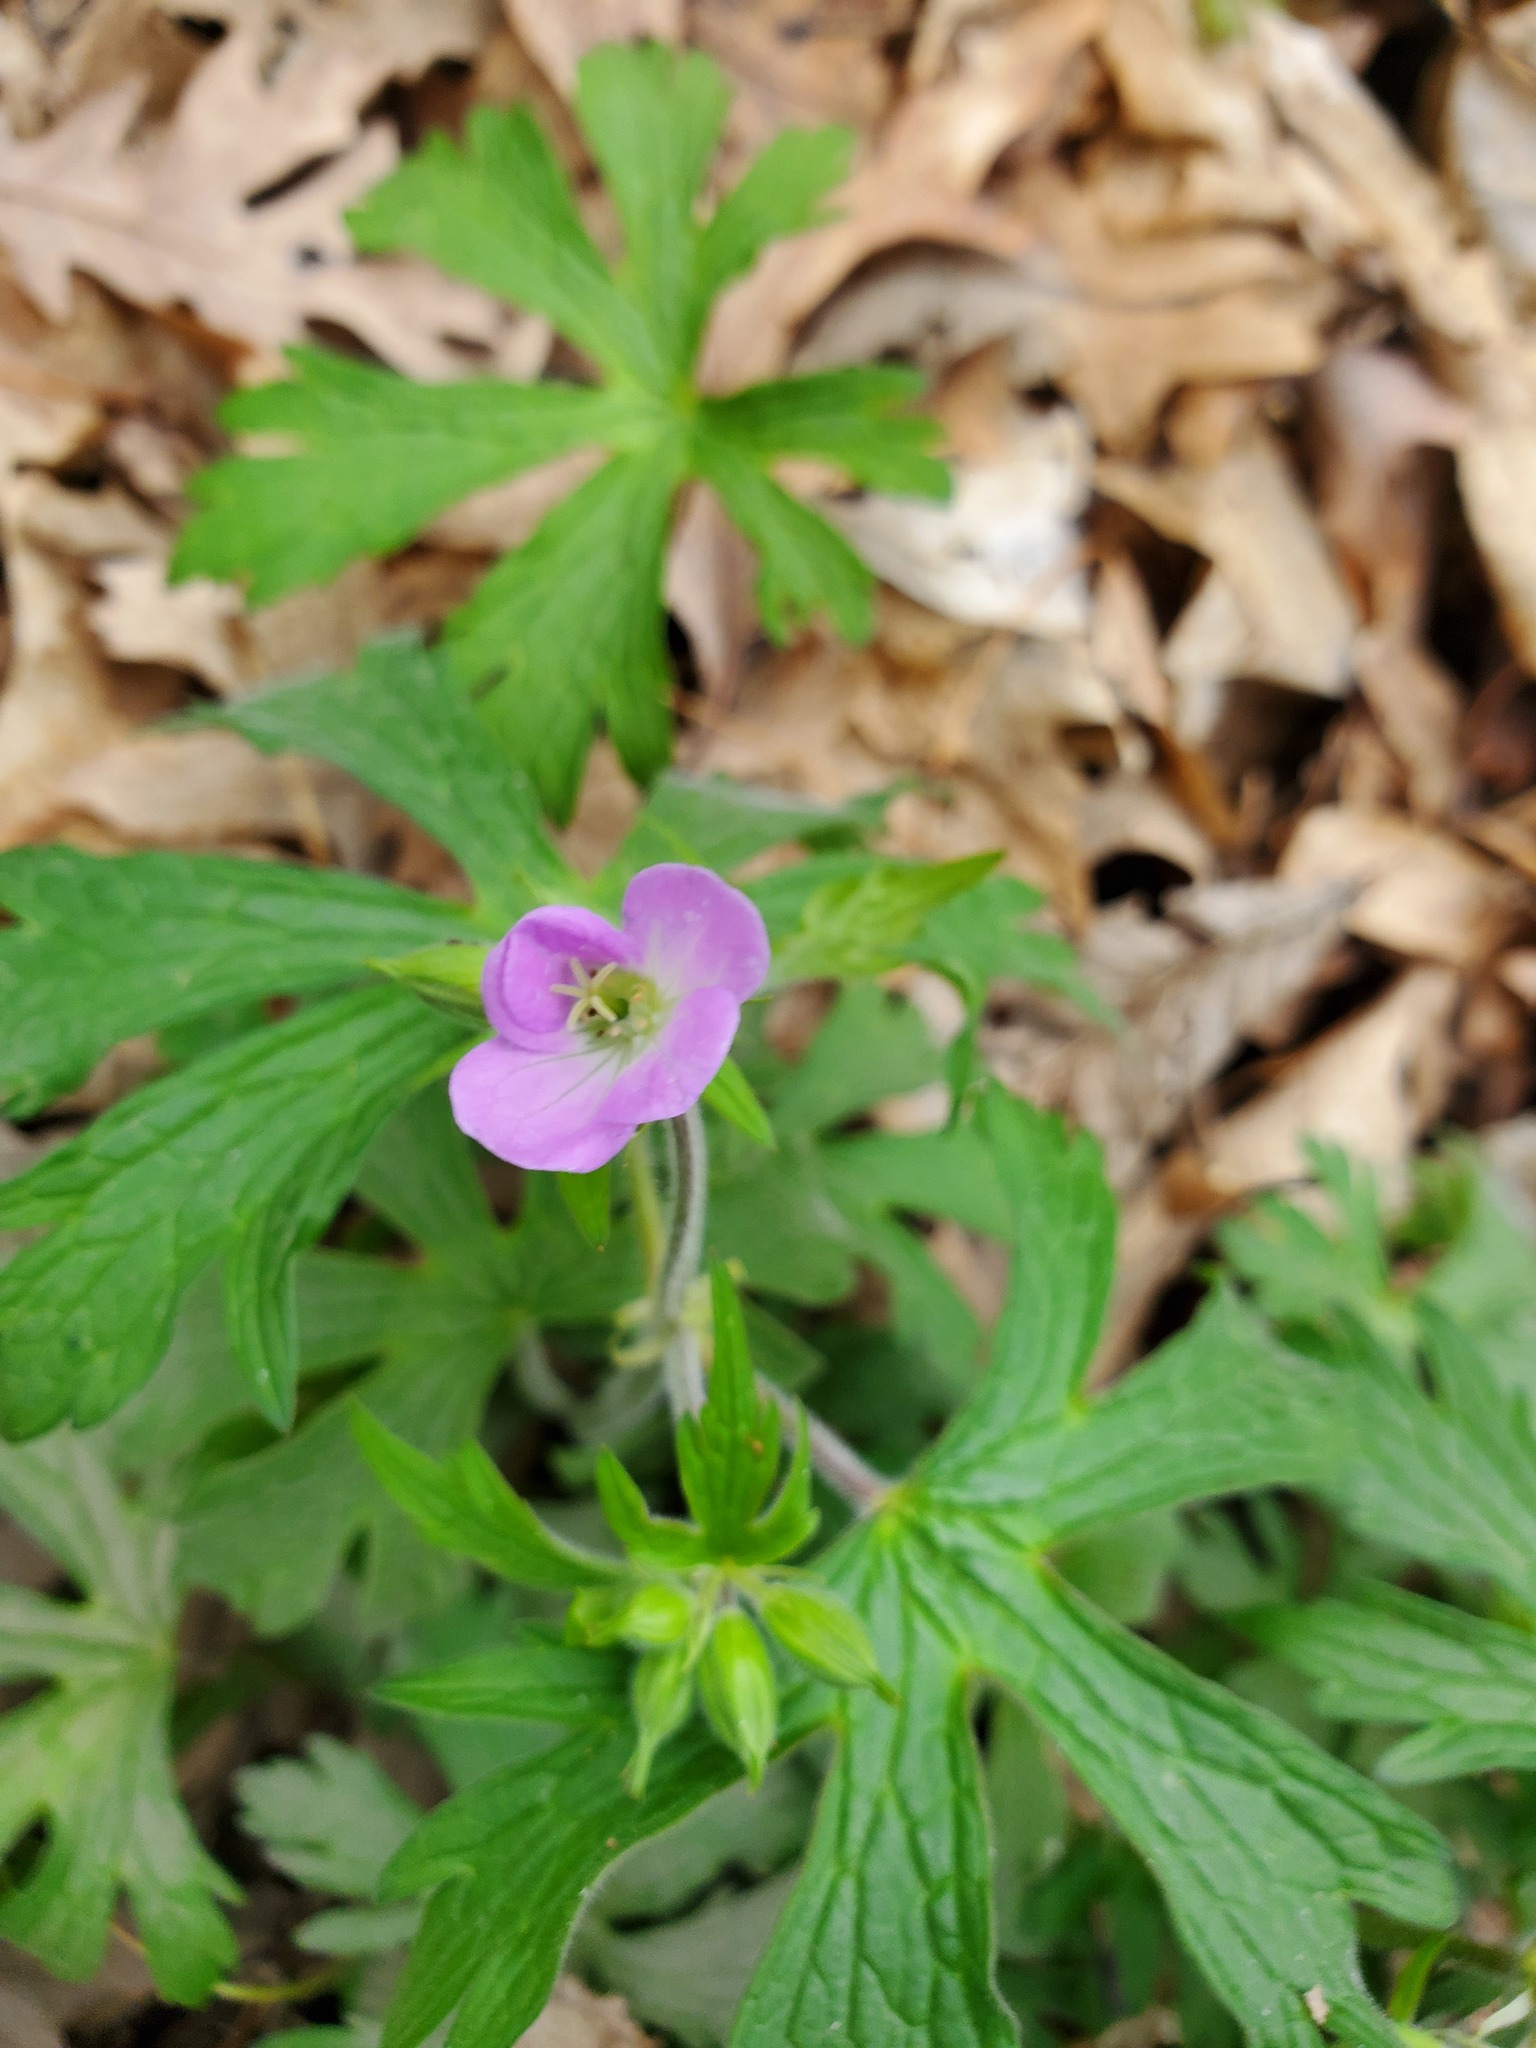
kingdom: Plantae
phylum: Tracheophyta
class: Magnoliopsida
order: Geraniales
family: Geraniaceae
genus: Geranium
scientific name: Geranium maculatum
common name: Spotted geranium
